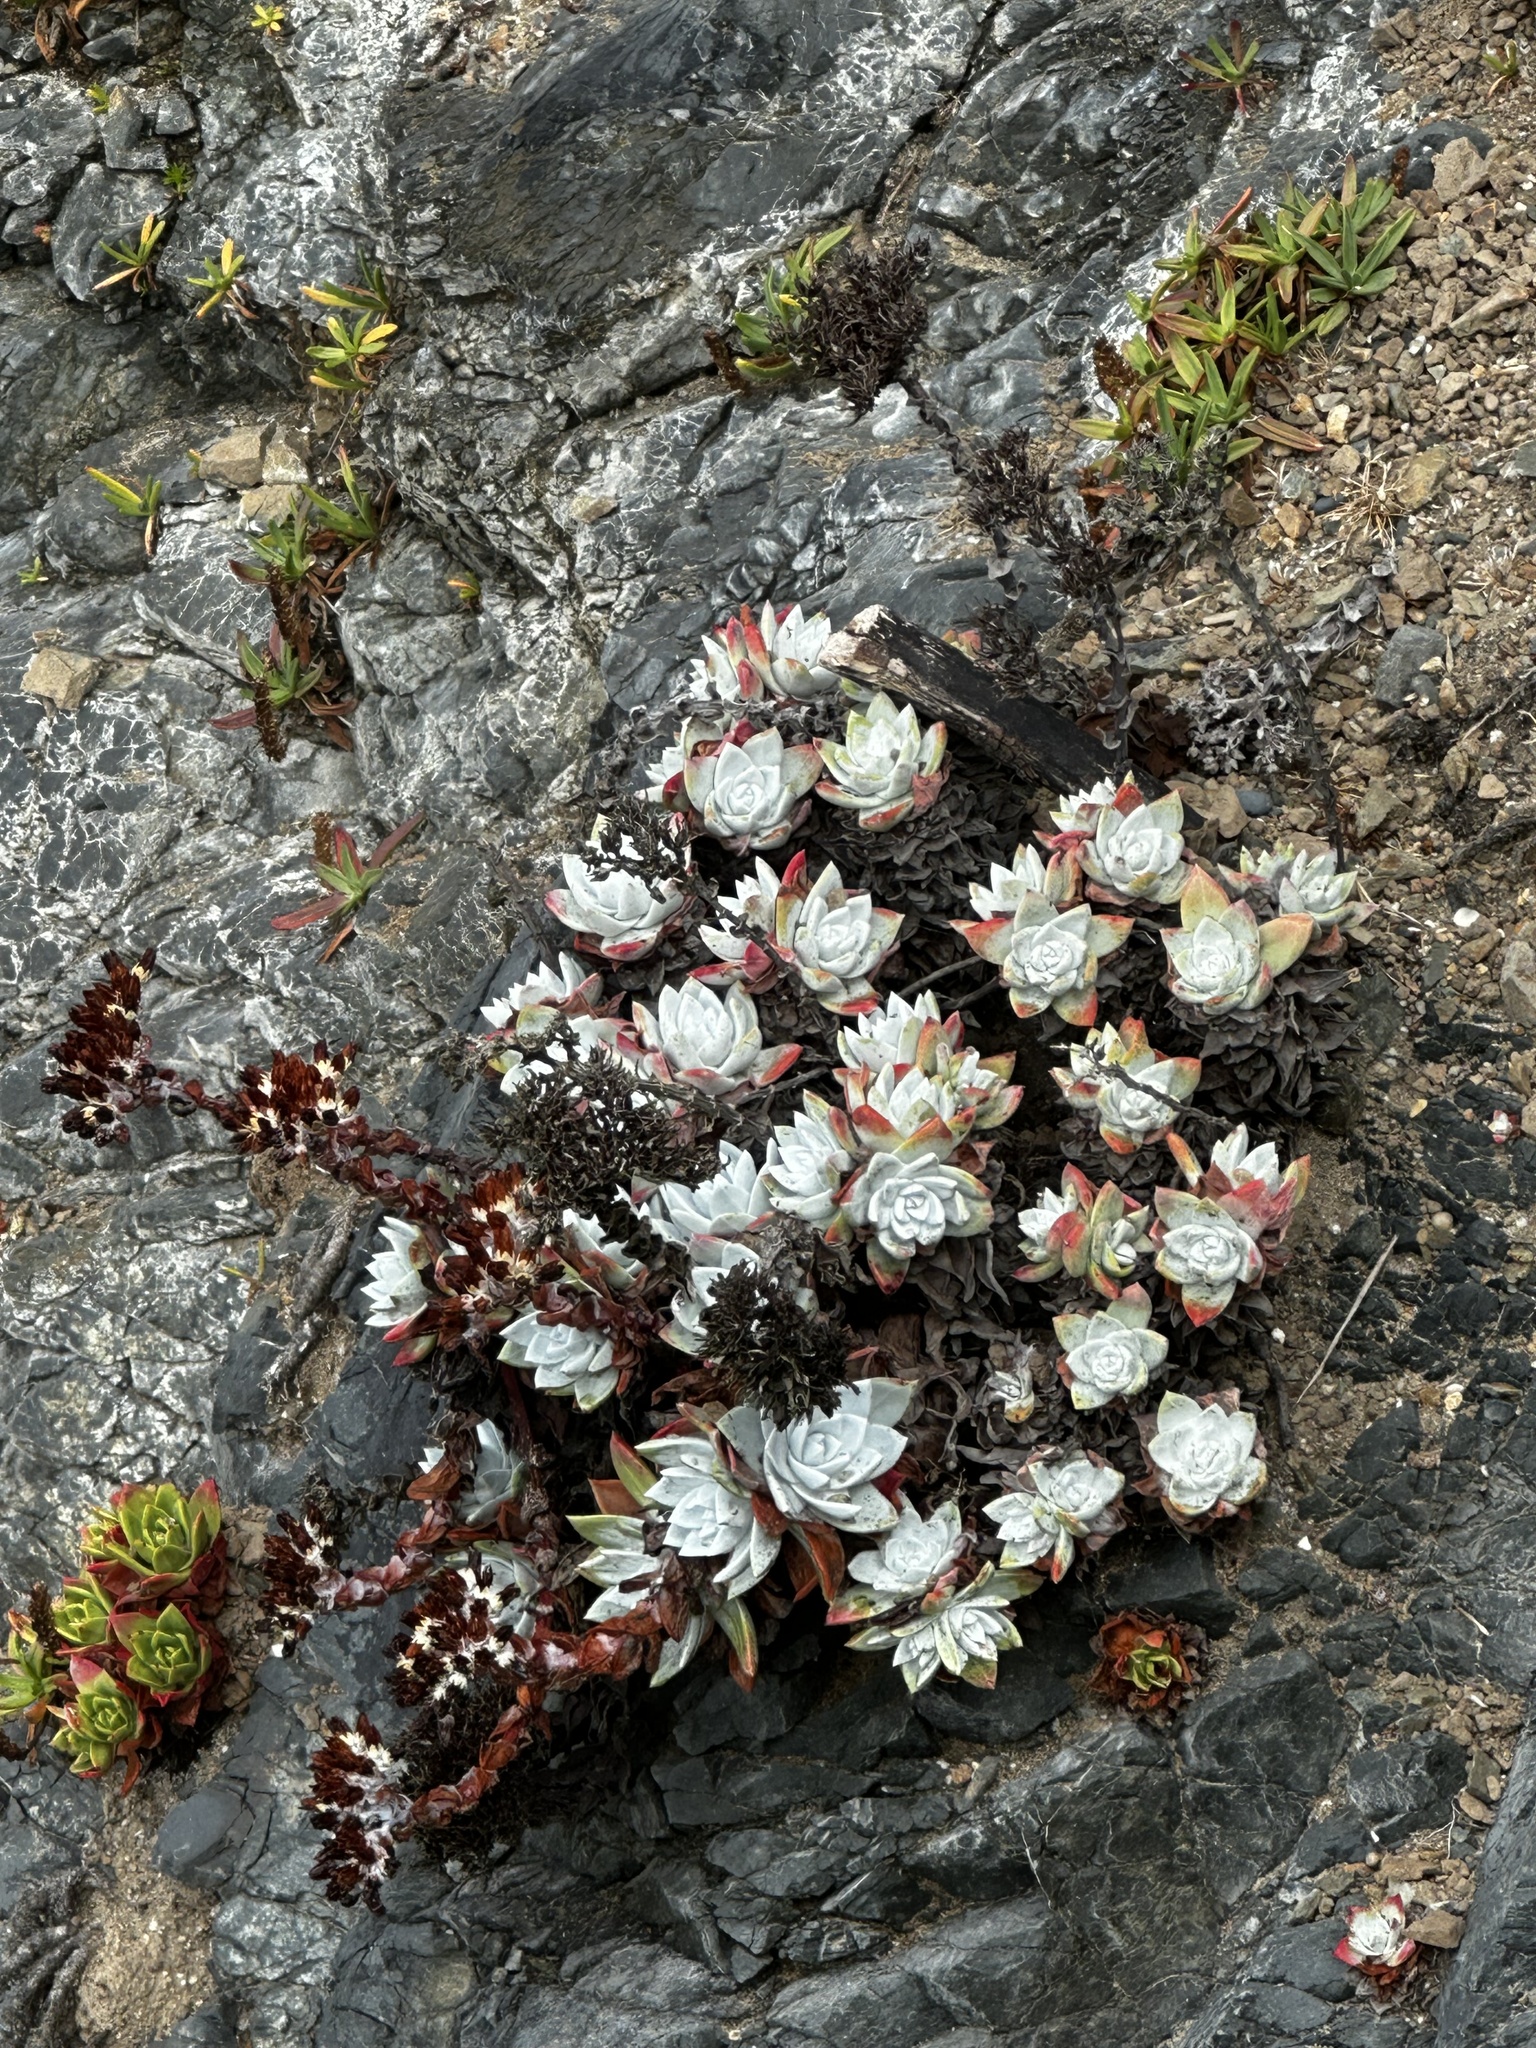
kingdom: Plantae
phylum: Tracheophyta
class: Magnoliopsida
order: Saxifragales
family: Crassulaceae
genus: Dudleya
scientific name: Dudleya farinosa
